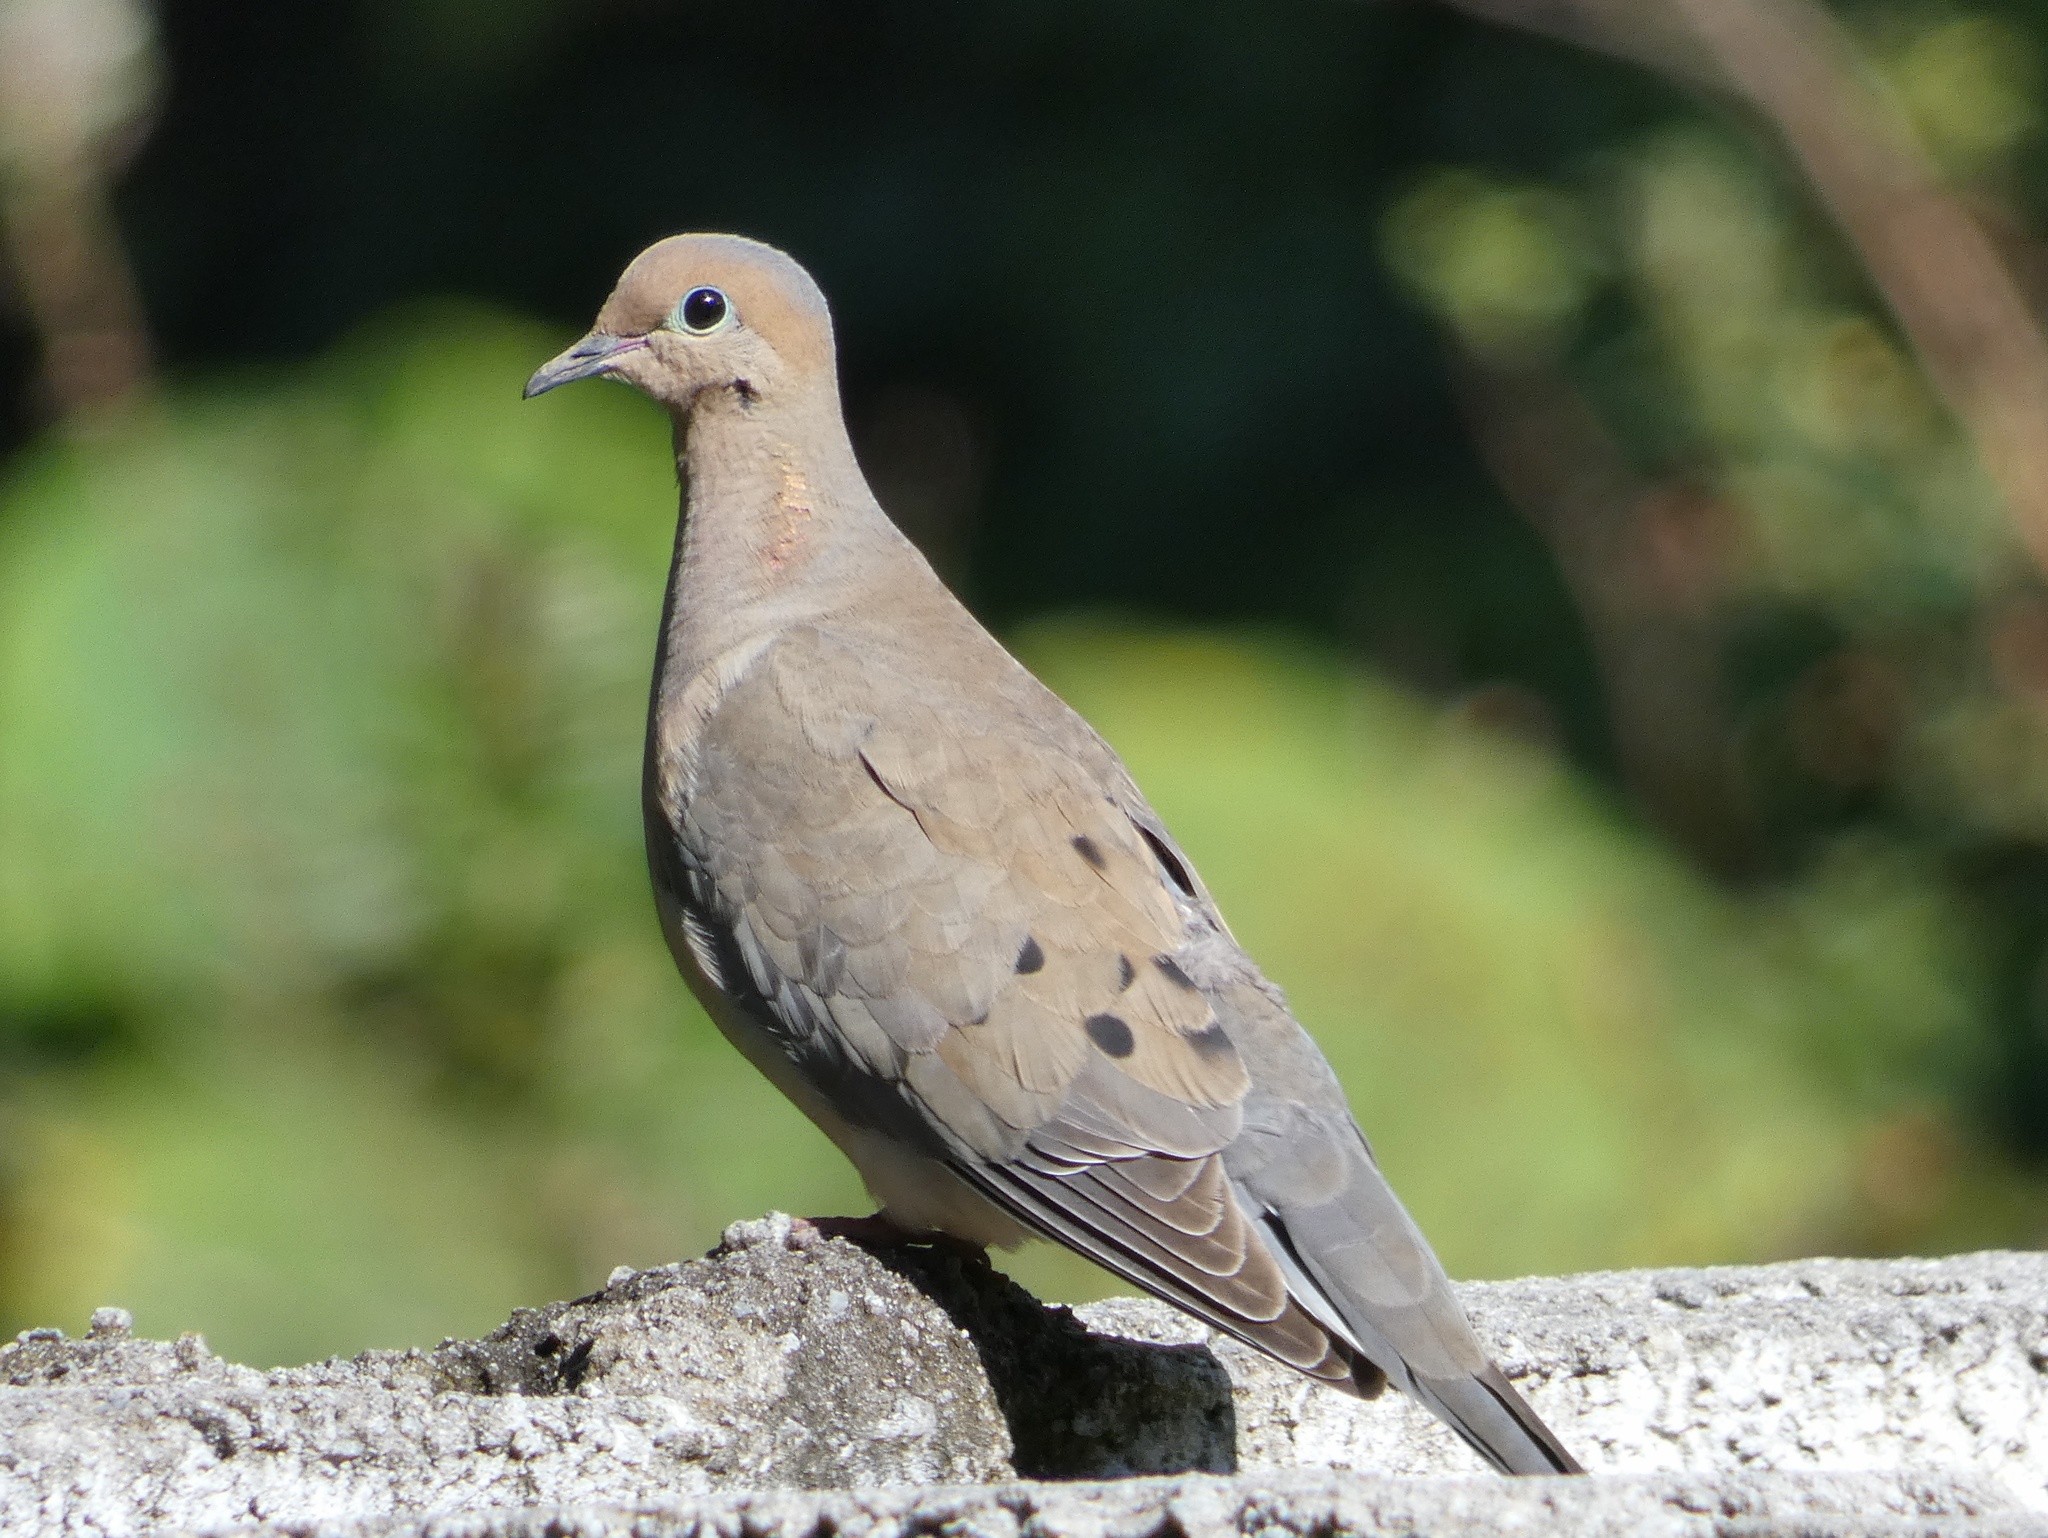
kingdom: Animalia
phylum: Chordata
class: Aves
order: Columbiformes
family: Columbidae
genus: Zenaida
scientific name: Zenaida macroura
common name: Mourning dove
